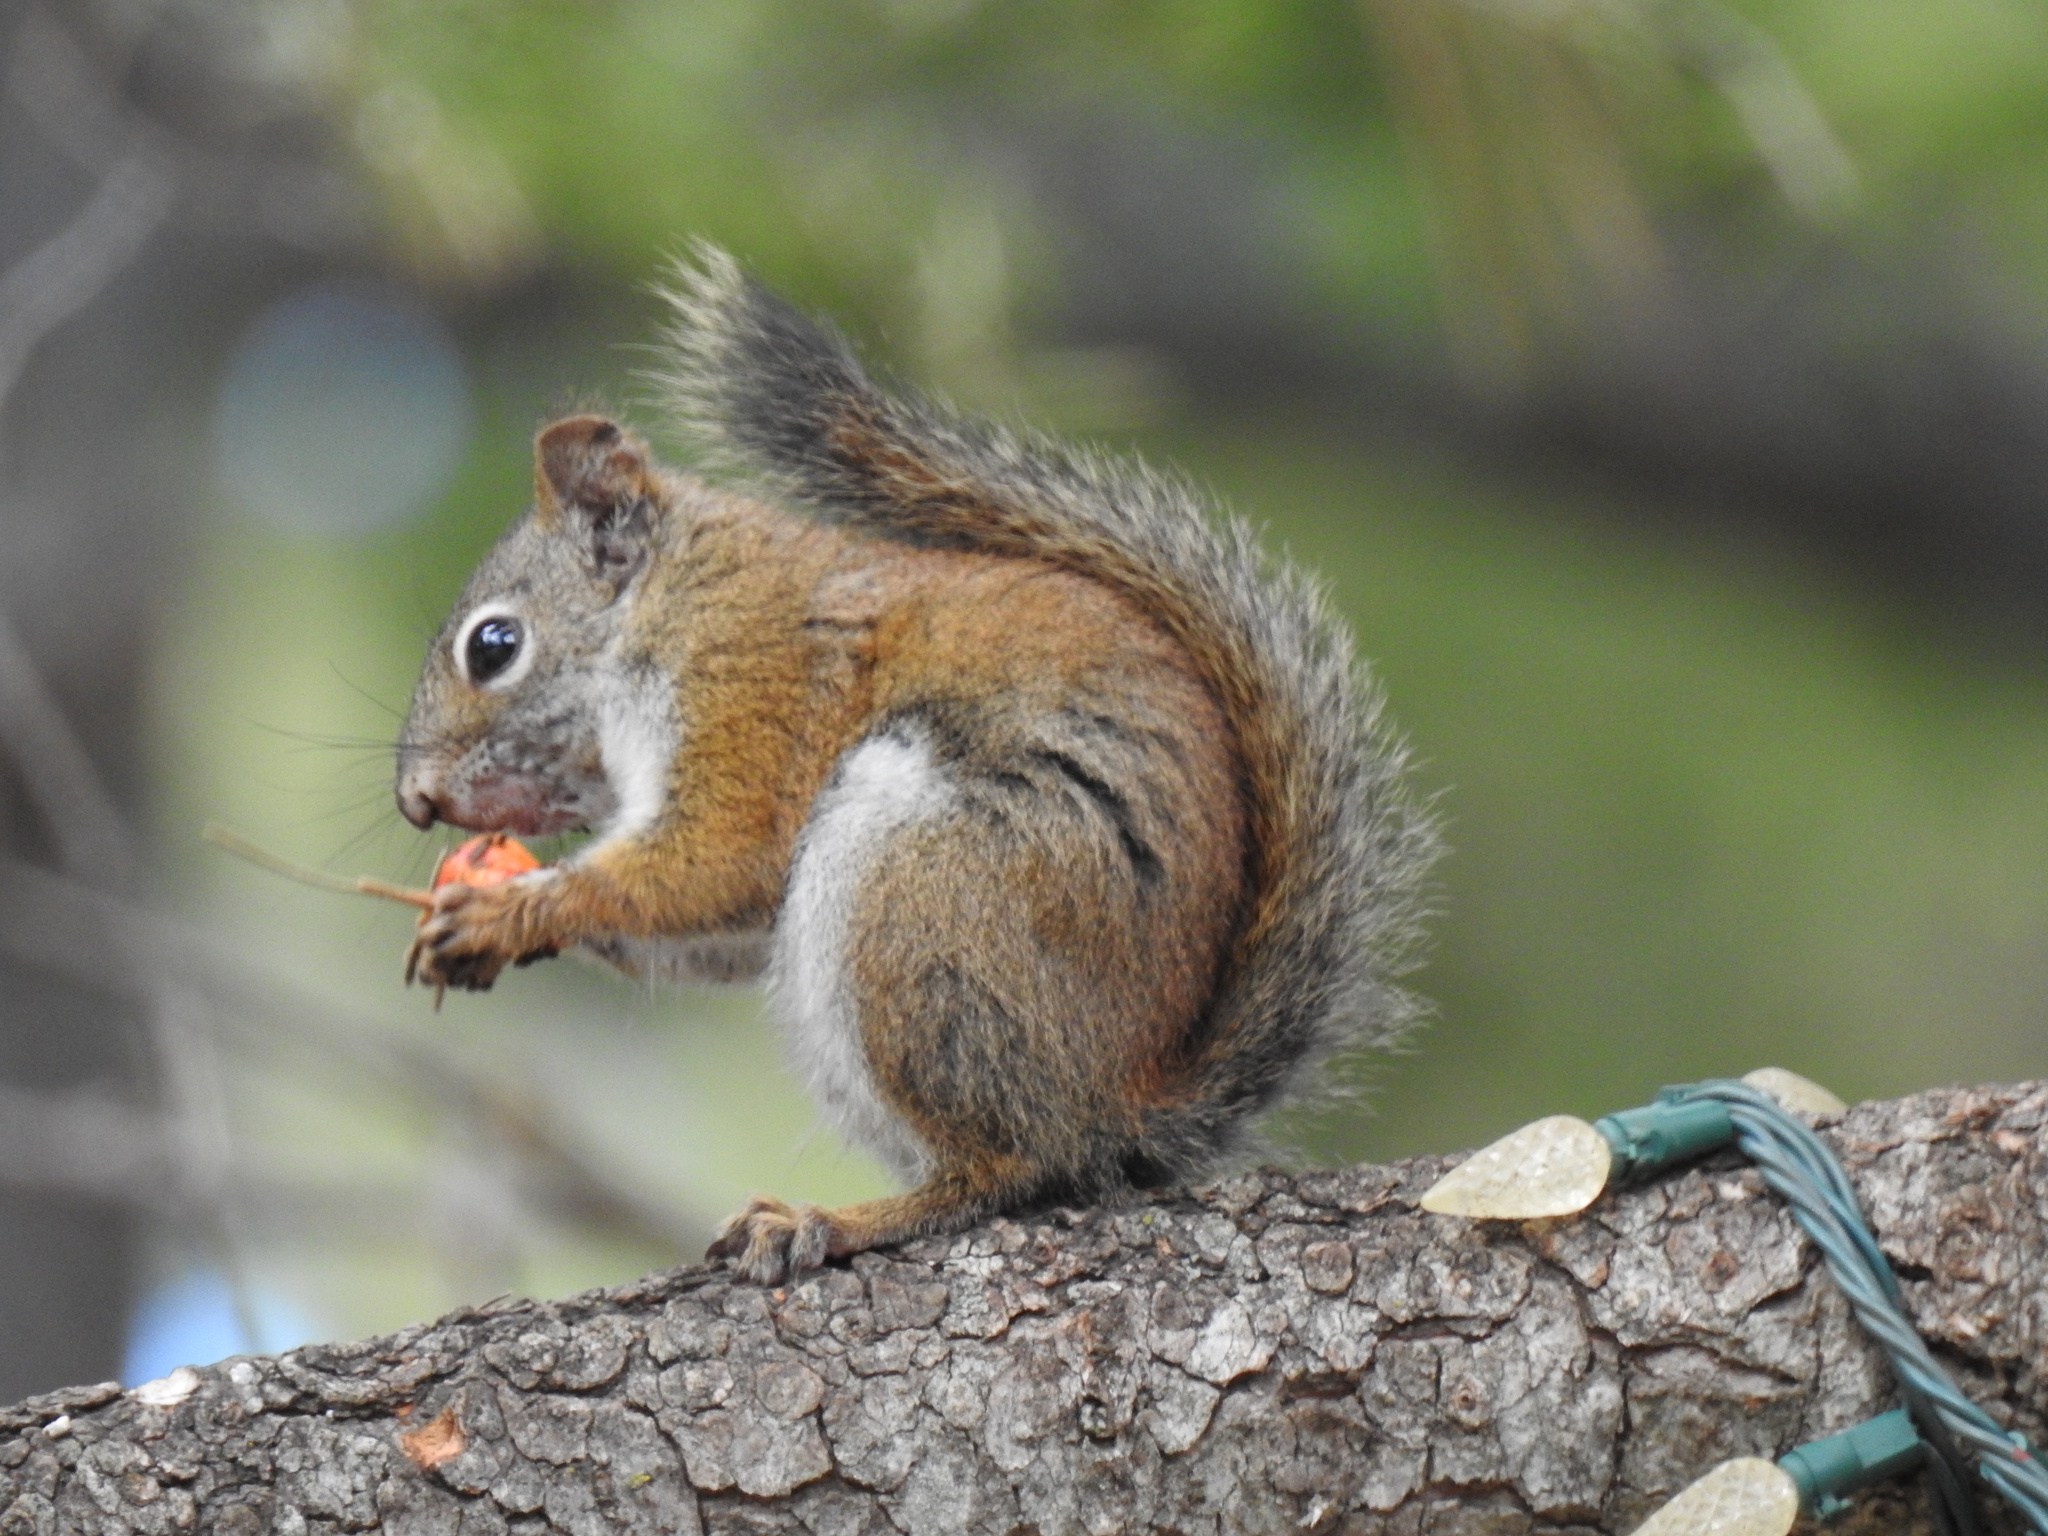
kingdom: Animalia
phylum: Chordata
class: Mammalia
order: Rodentia
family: Sciuridae
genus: Tamiasciurus
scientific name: Tamiasciurus hudsonicus
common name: Red squirrel
